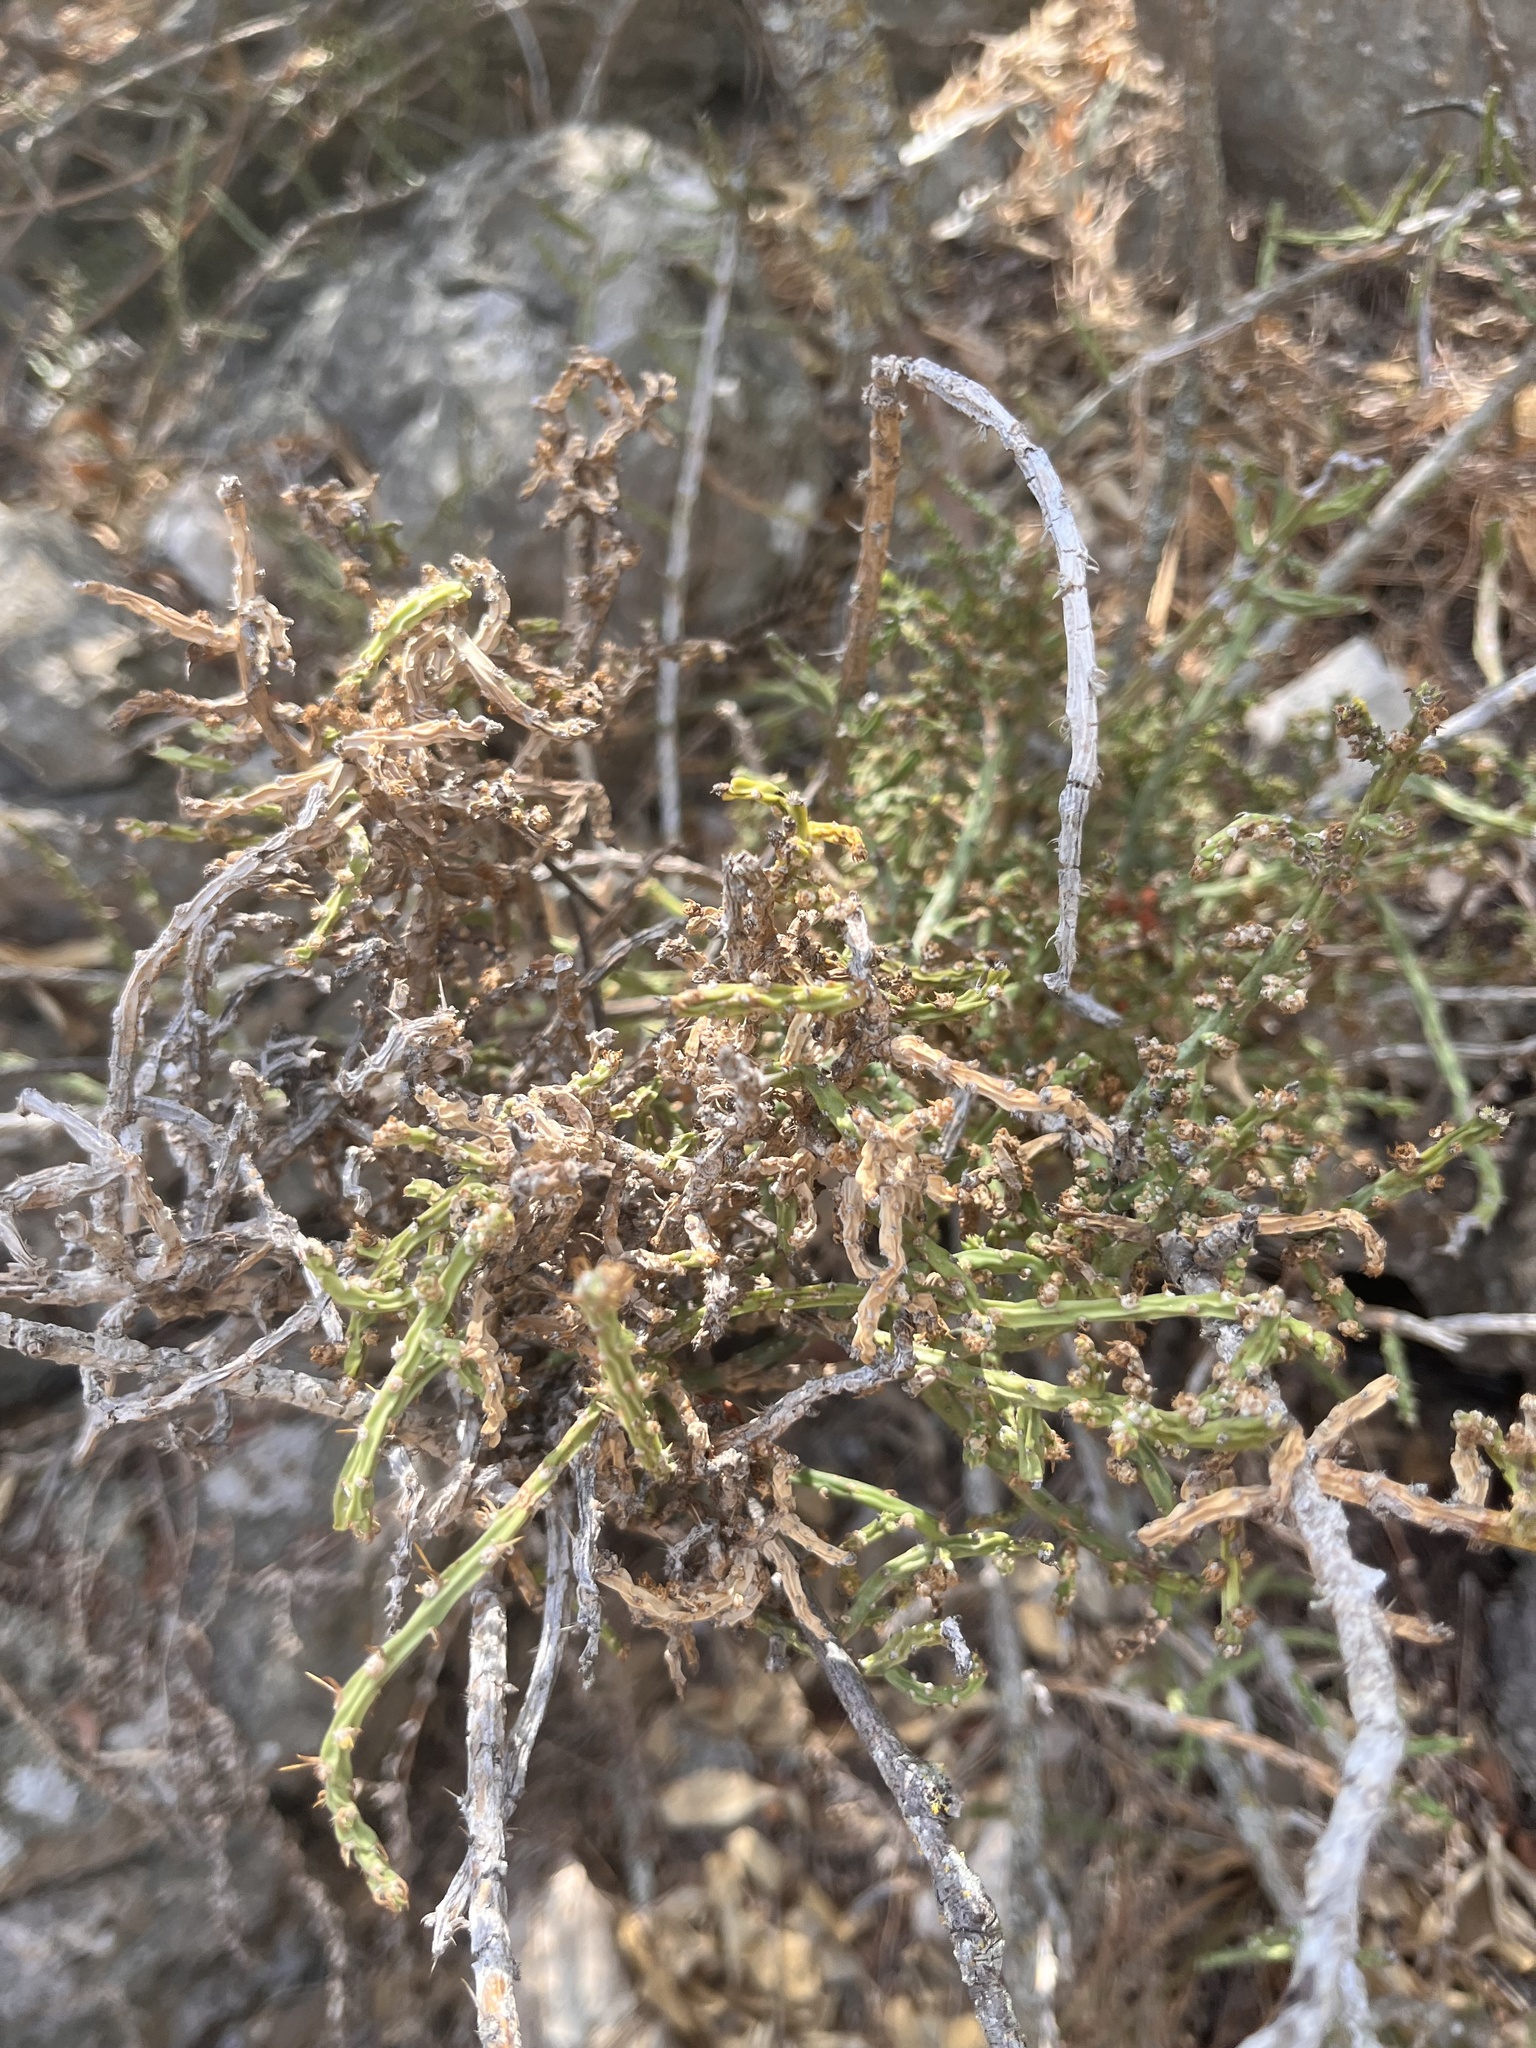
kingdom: Plantae
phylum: Tracheophyta
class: Magnoliopsida
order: Caryophyllales
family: Cactaceae
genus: Cylindropuntia
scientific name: Cylindropuntia leptocaulis
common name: Christmas cactus
